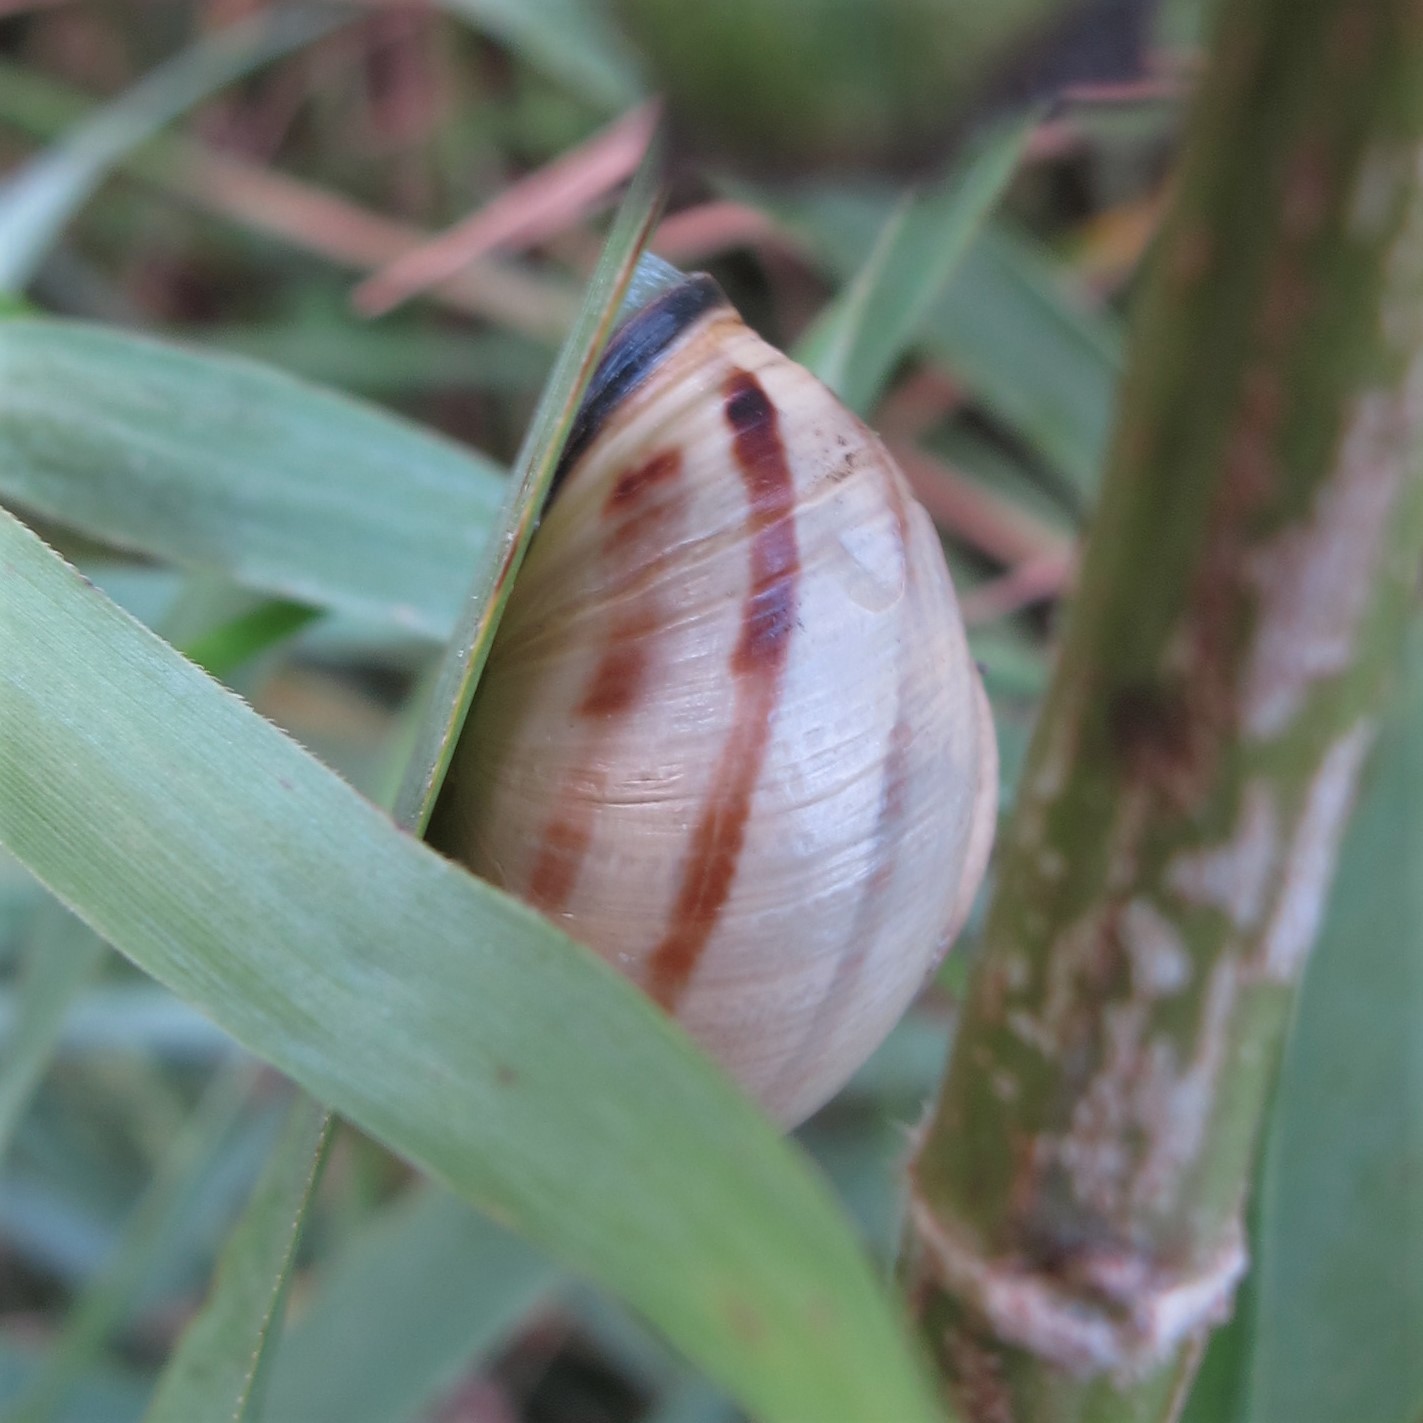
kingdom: Animalia
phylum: Mollusca
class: Gastropoda
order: Stylommatophora
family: Helicidae
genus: Cepaea
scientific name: Cepaea nemoralis
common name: Grovesnail
